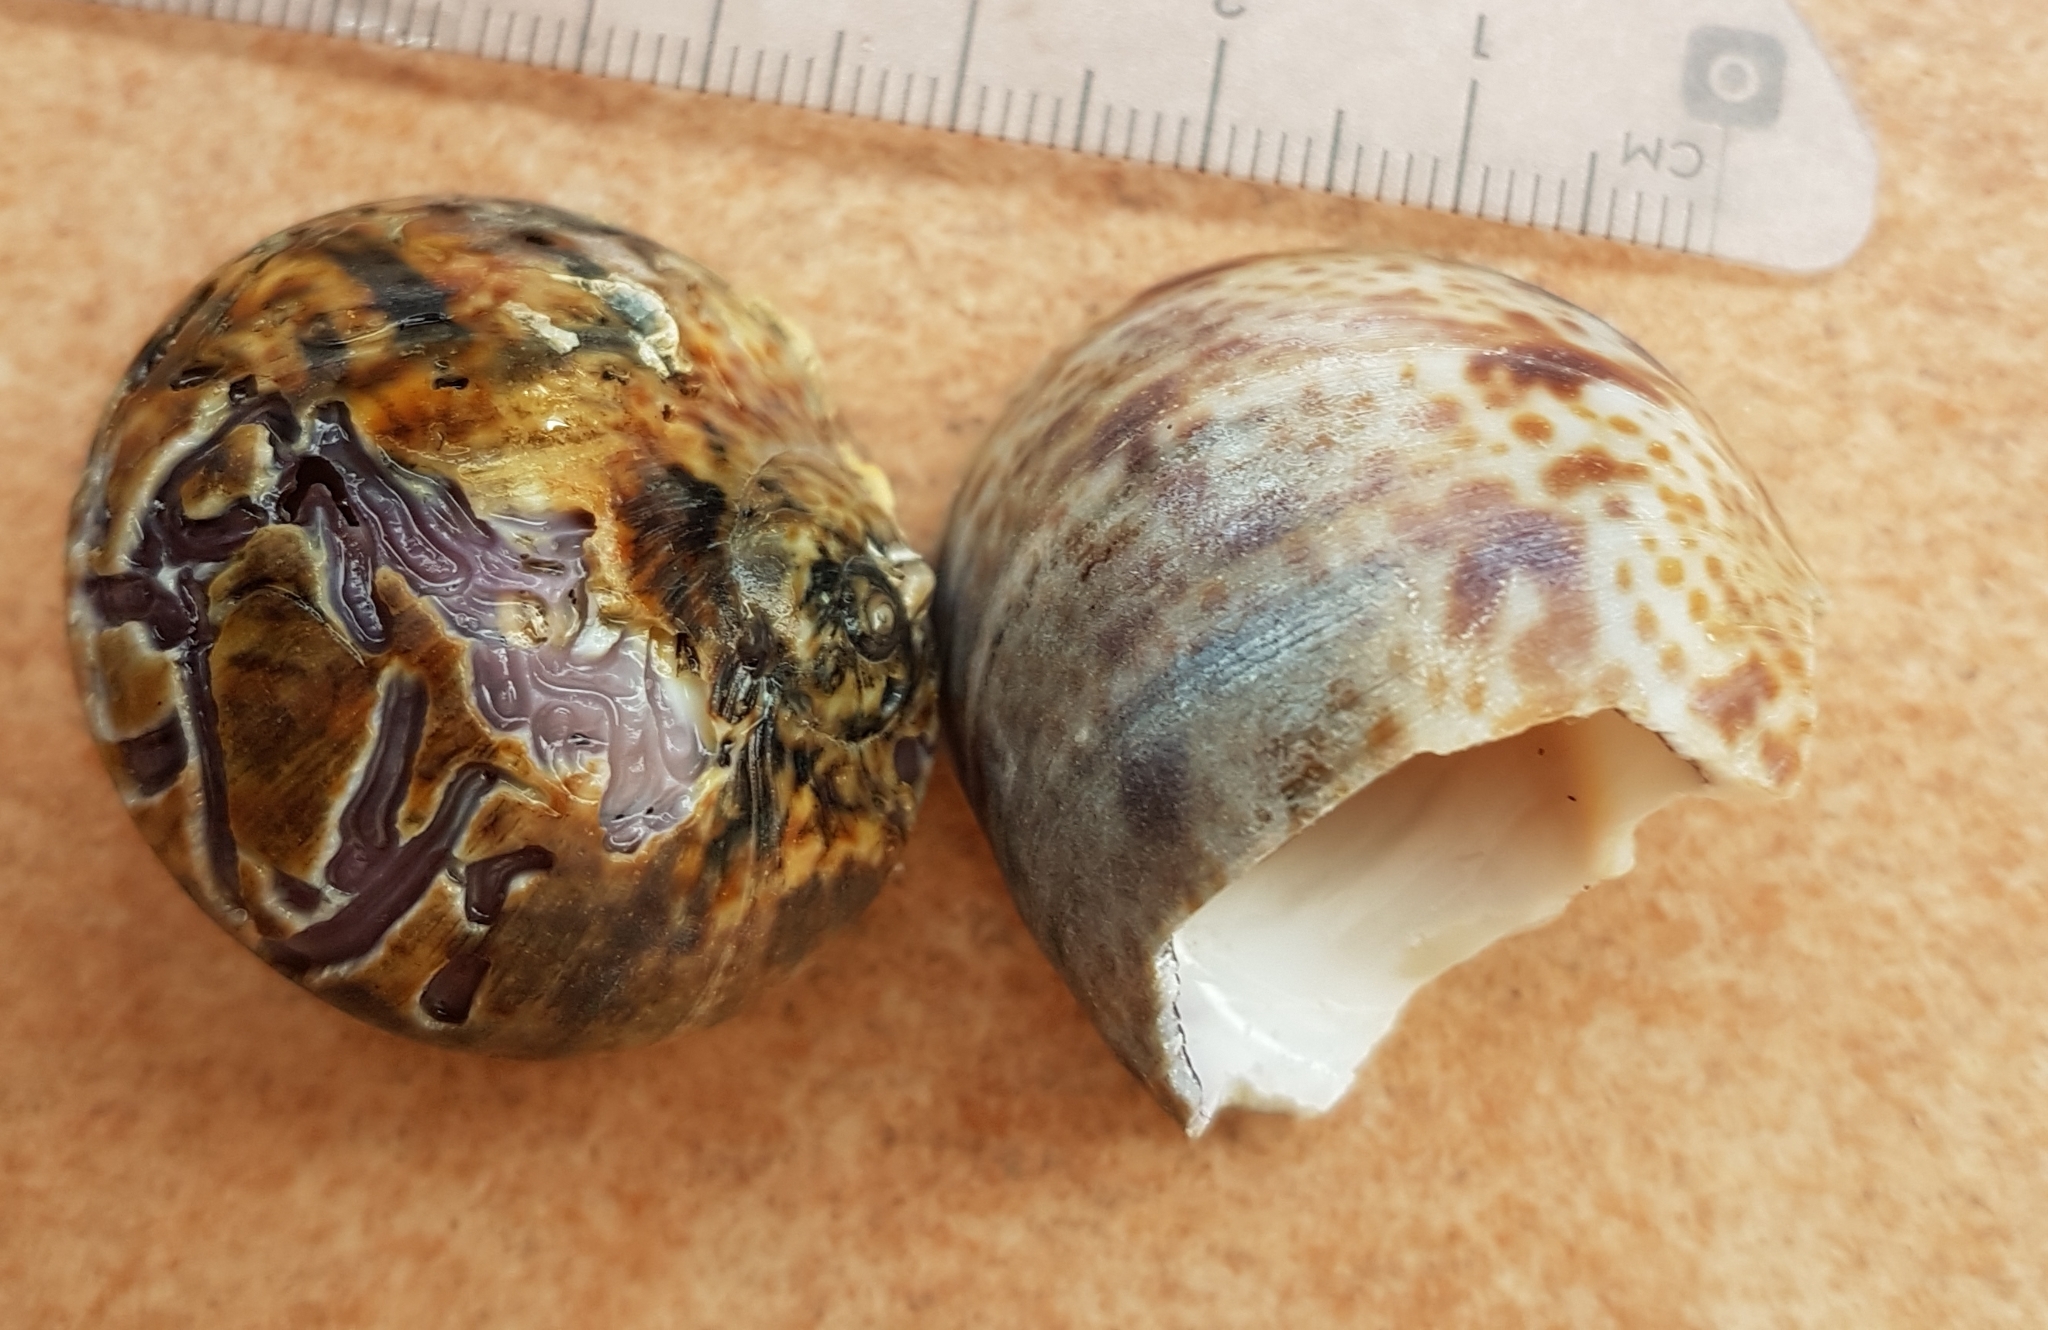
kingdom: Animalia
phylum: Mollusca
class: Gastropoda
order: Littorinimorpha
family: Naticidae
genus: Naticarius
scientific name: Naticarius hebraeus
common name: Hebrew moon shell
